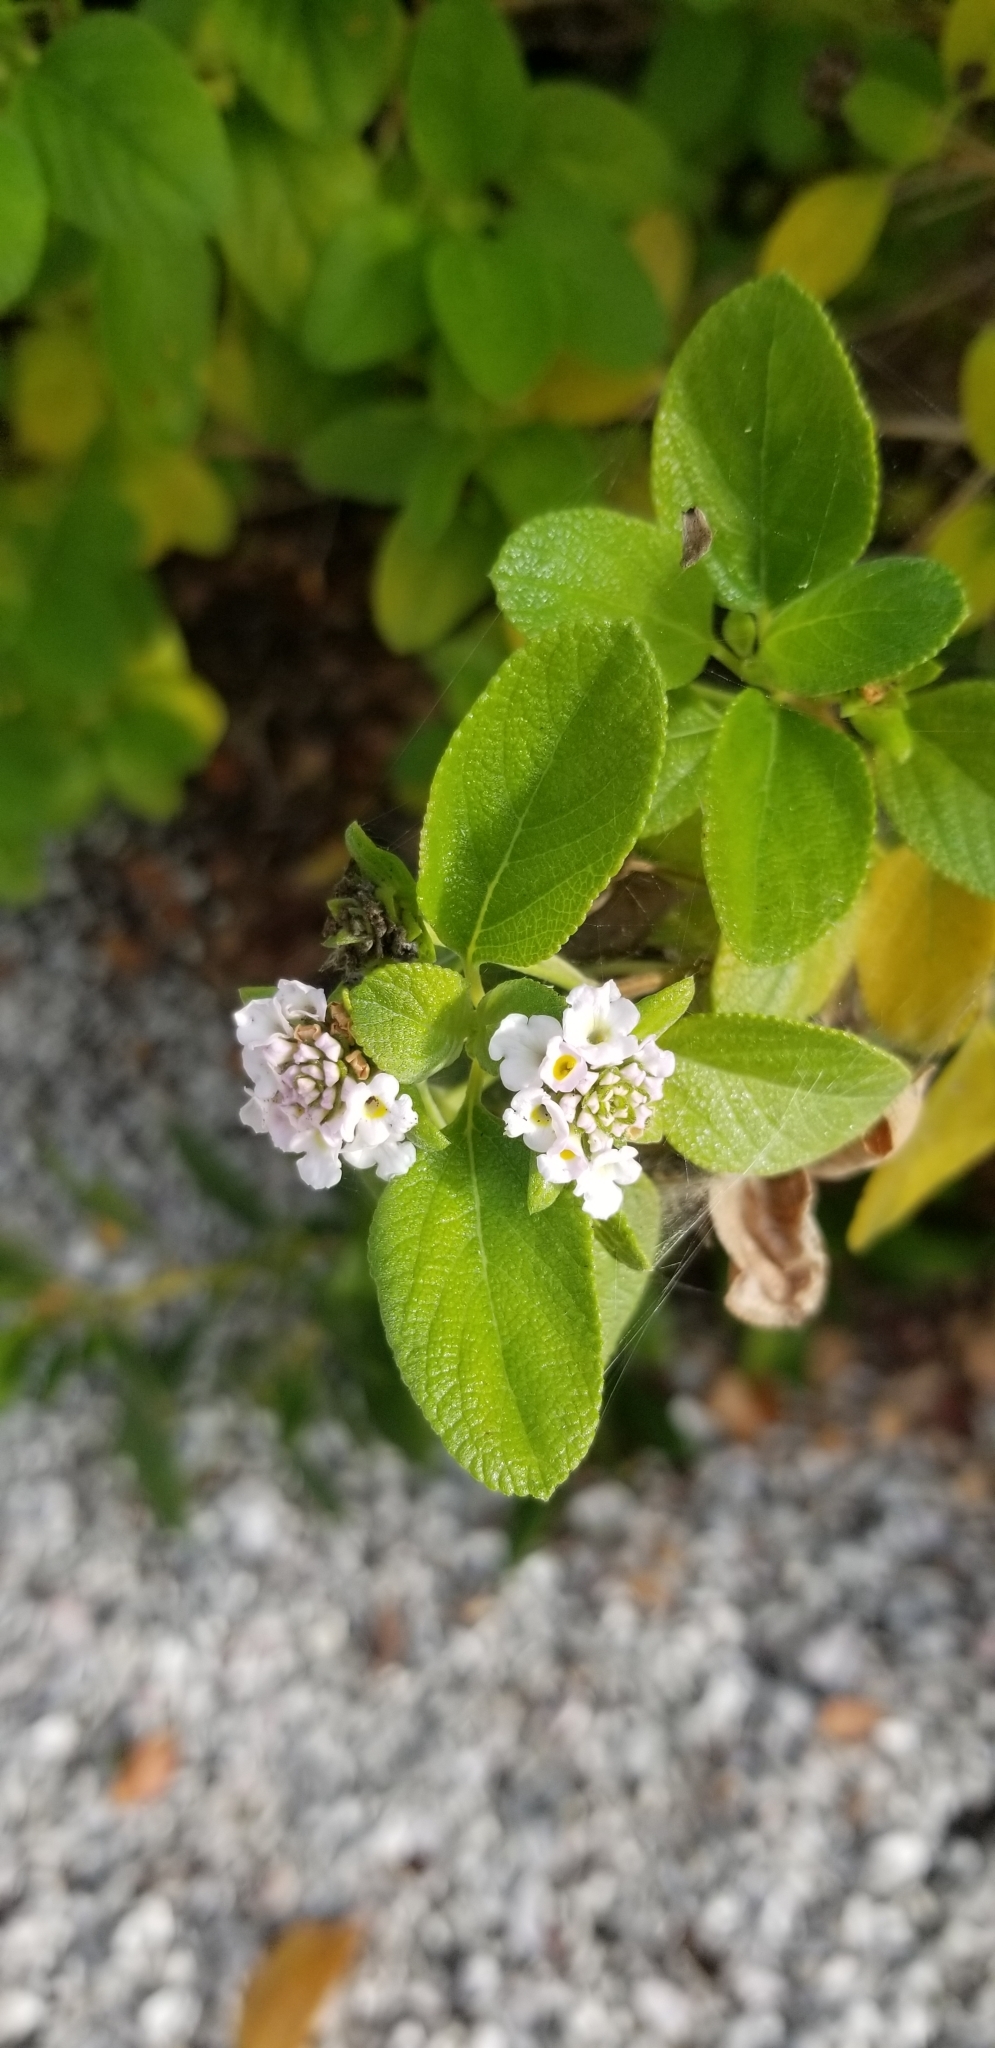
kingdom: Plantae
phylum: Tracheophyta
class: Magnoliopsida
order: Lamiales
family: Verbenaceae
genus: Lantana
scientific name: Lantana involucrata
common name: Black sage
